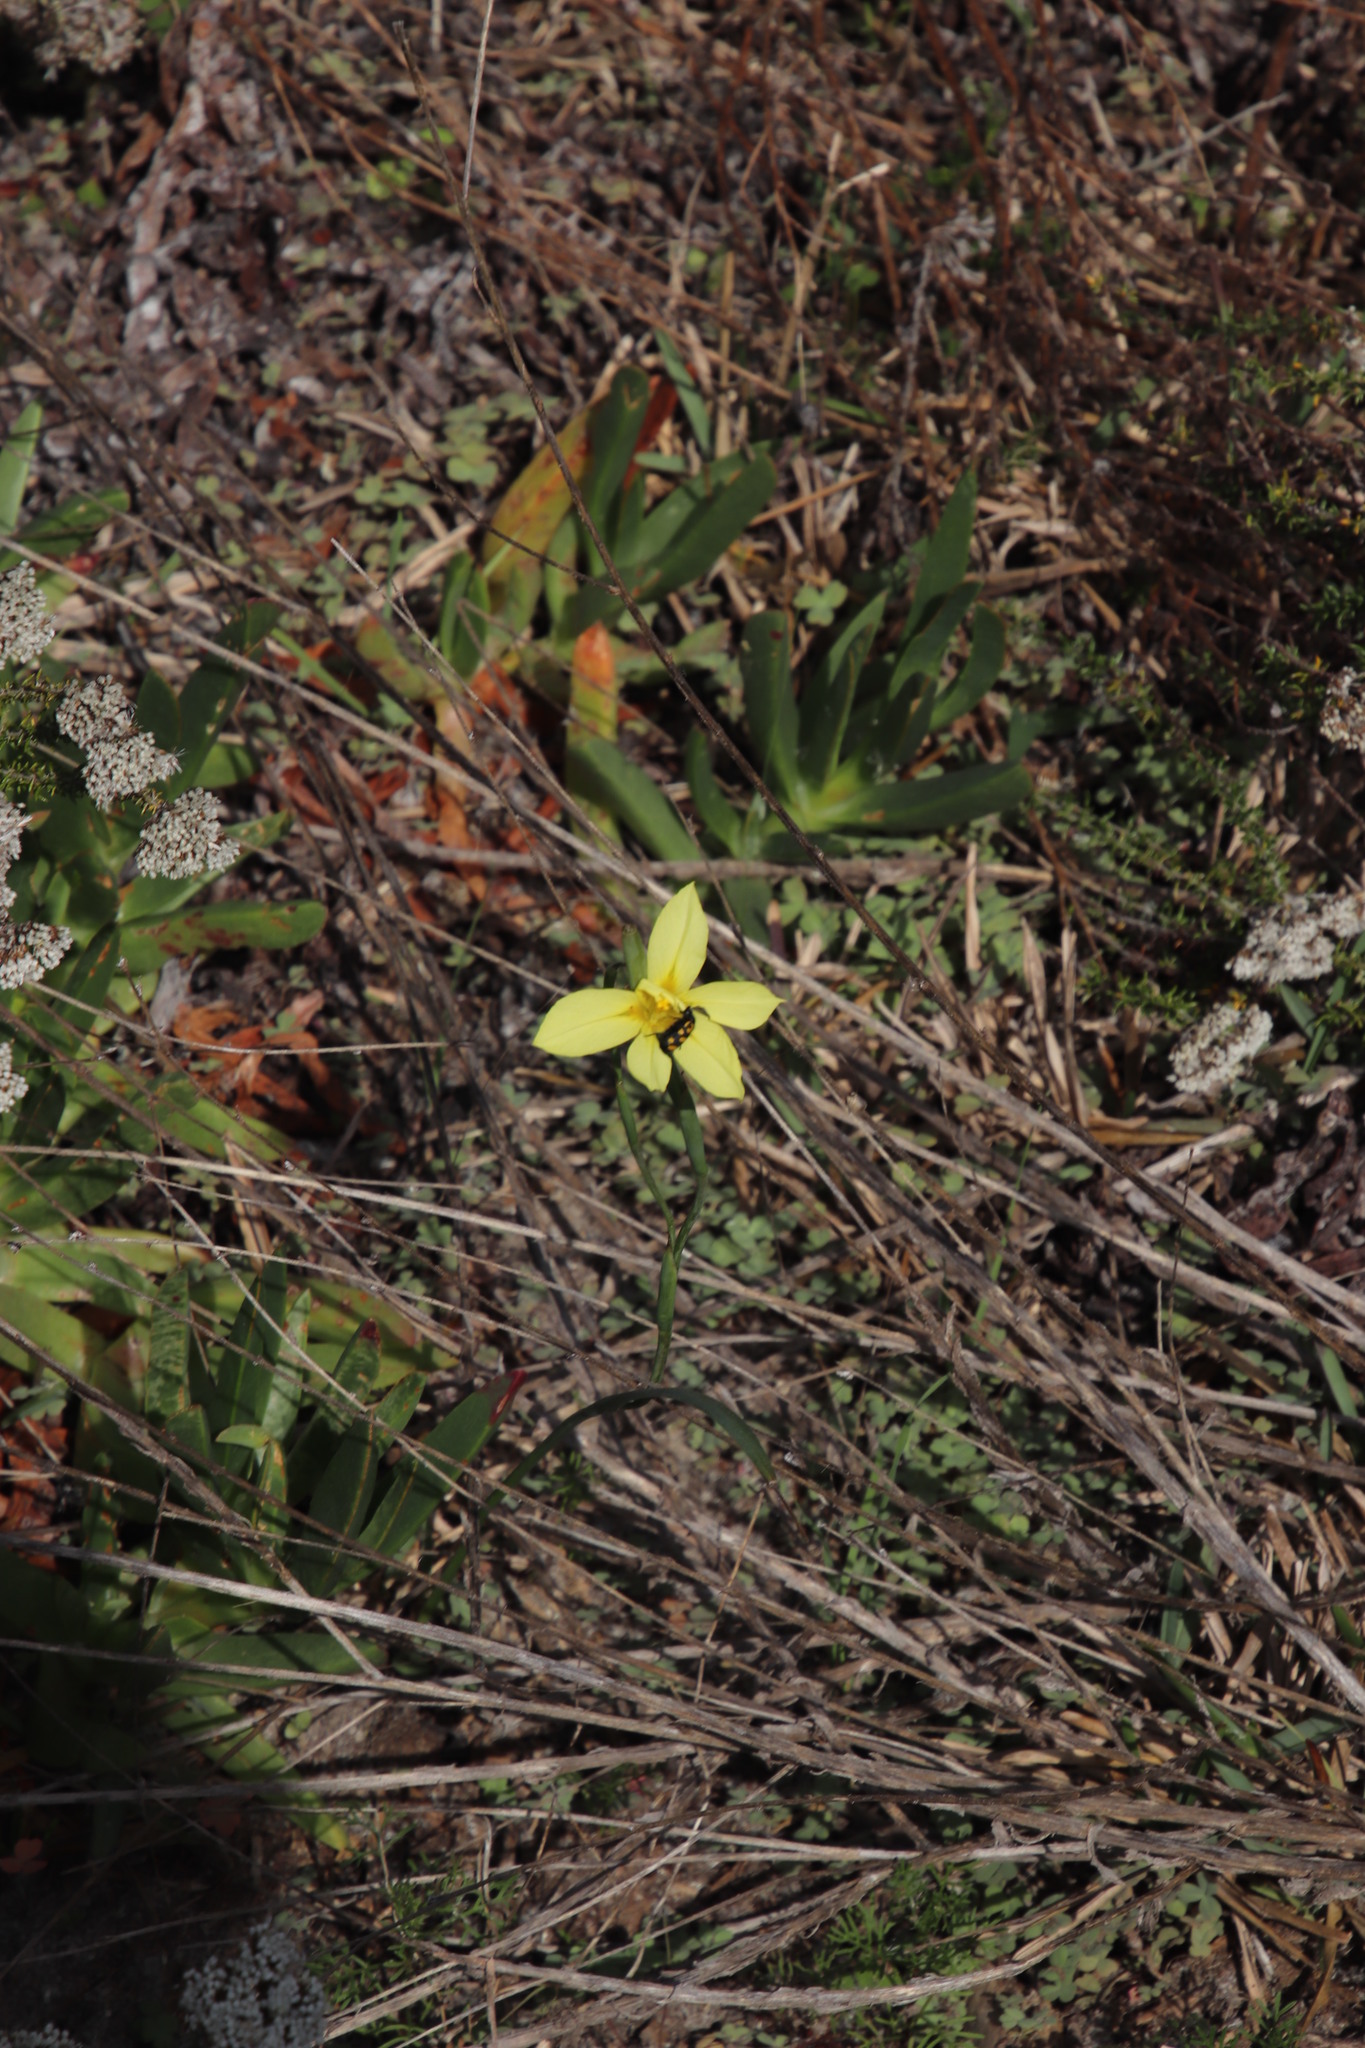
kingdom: Plantae
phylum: Tracheophyta
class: Liliopsida
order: Asparagales
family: Iridaceae
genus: Moraea
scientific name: Moraea collina
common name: Cape-tulip
